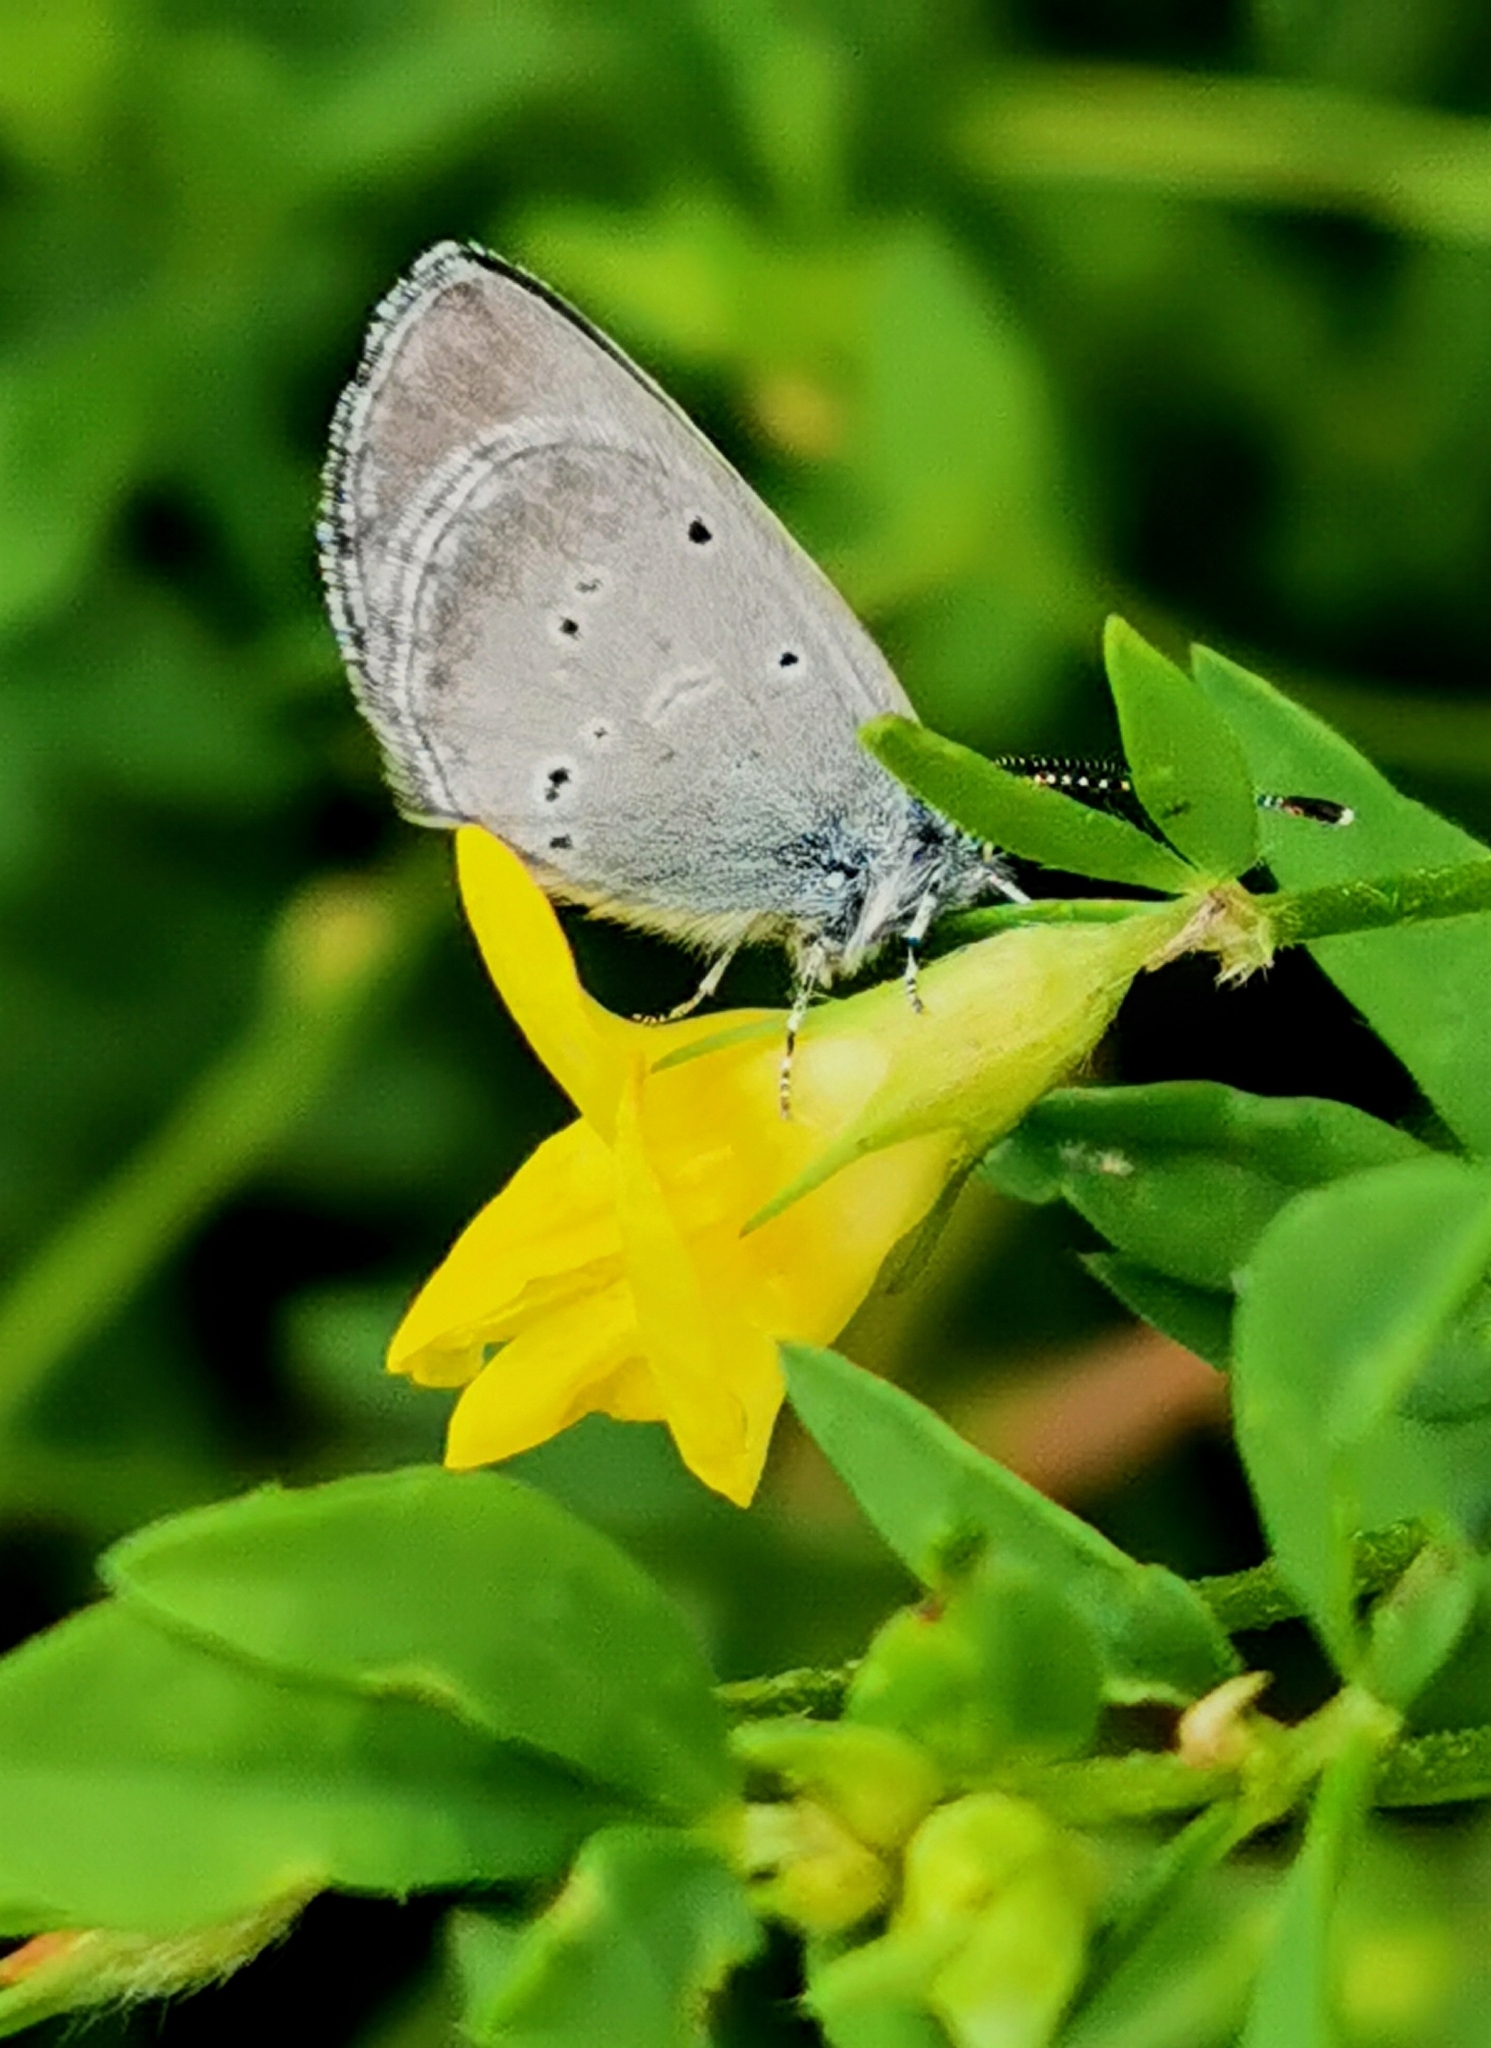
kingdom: Animalia
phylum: Arthropoda
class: Insecta
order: Lepidoptera
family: Lycaenidae
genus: Cupido
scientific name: Cupido minimus
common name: Small blue
